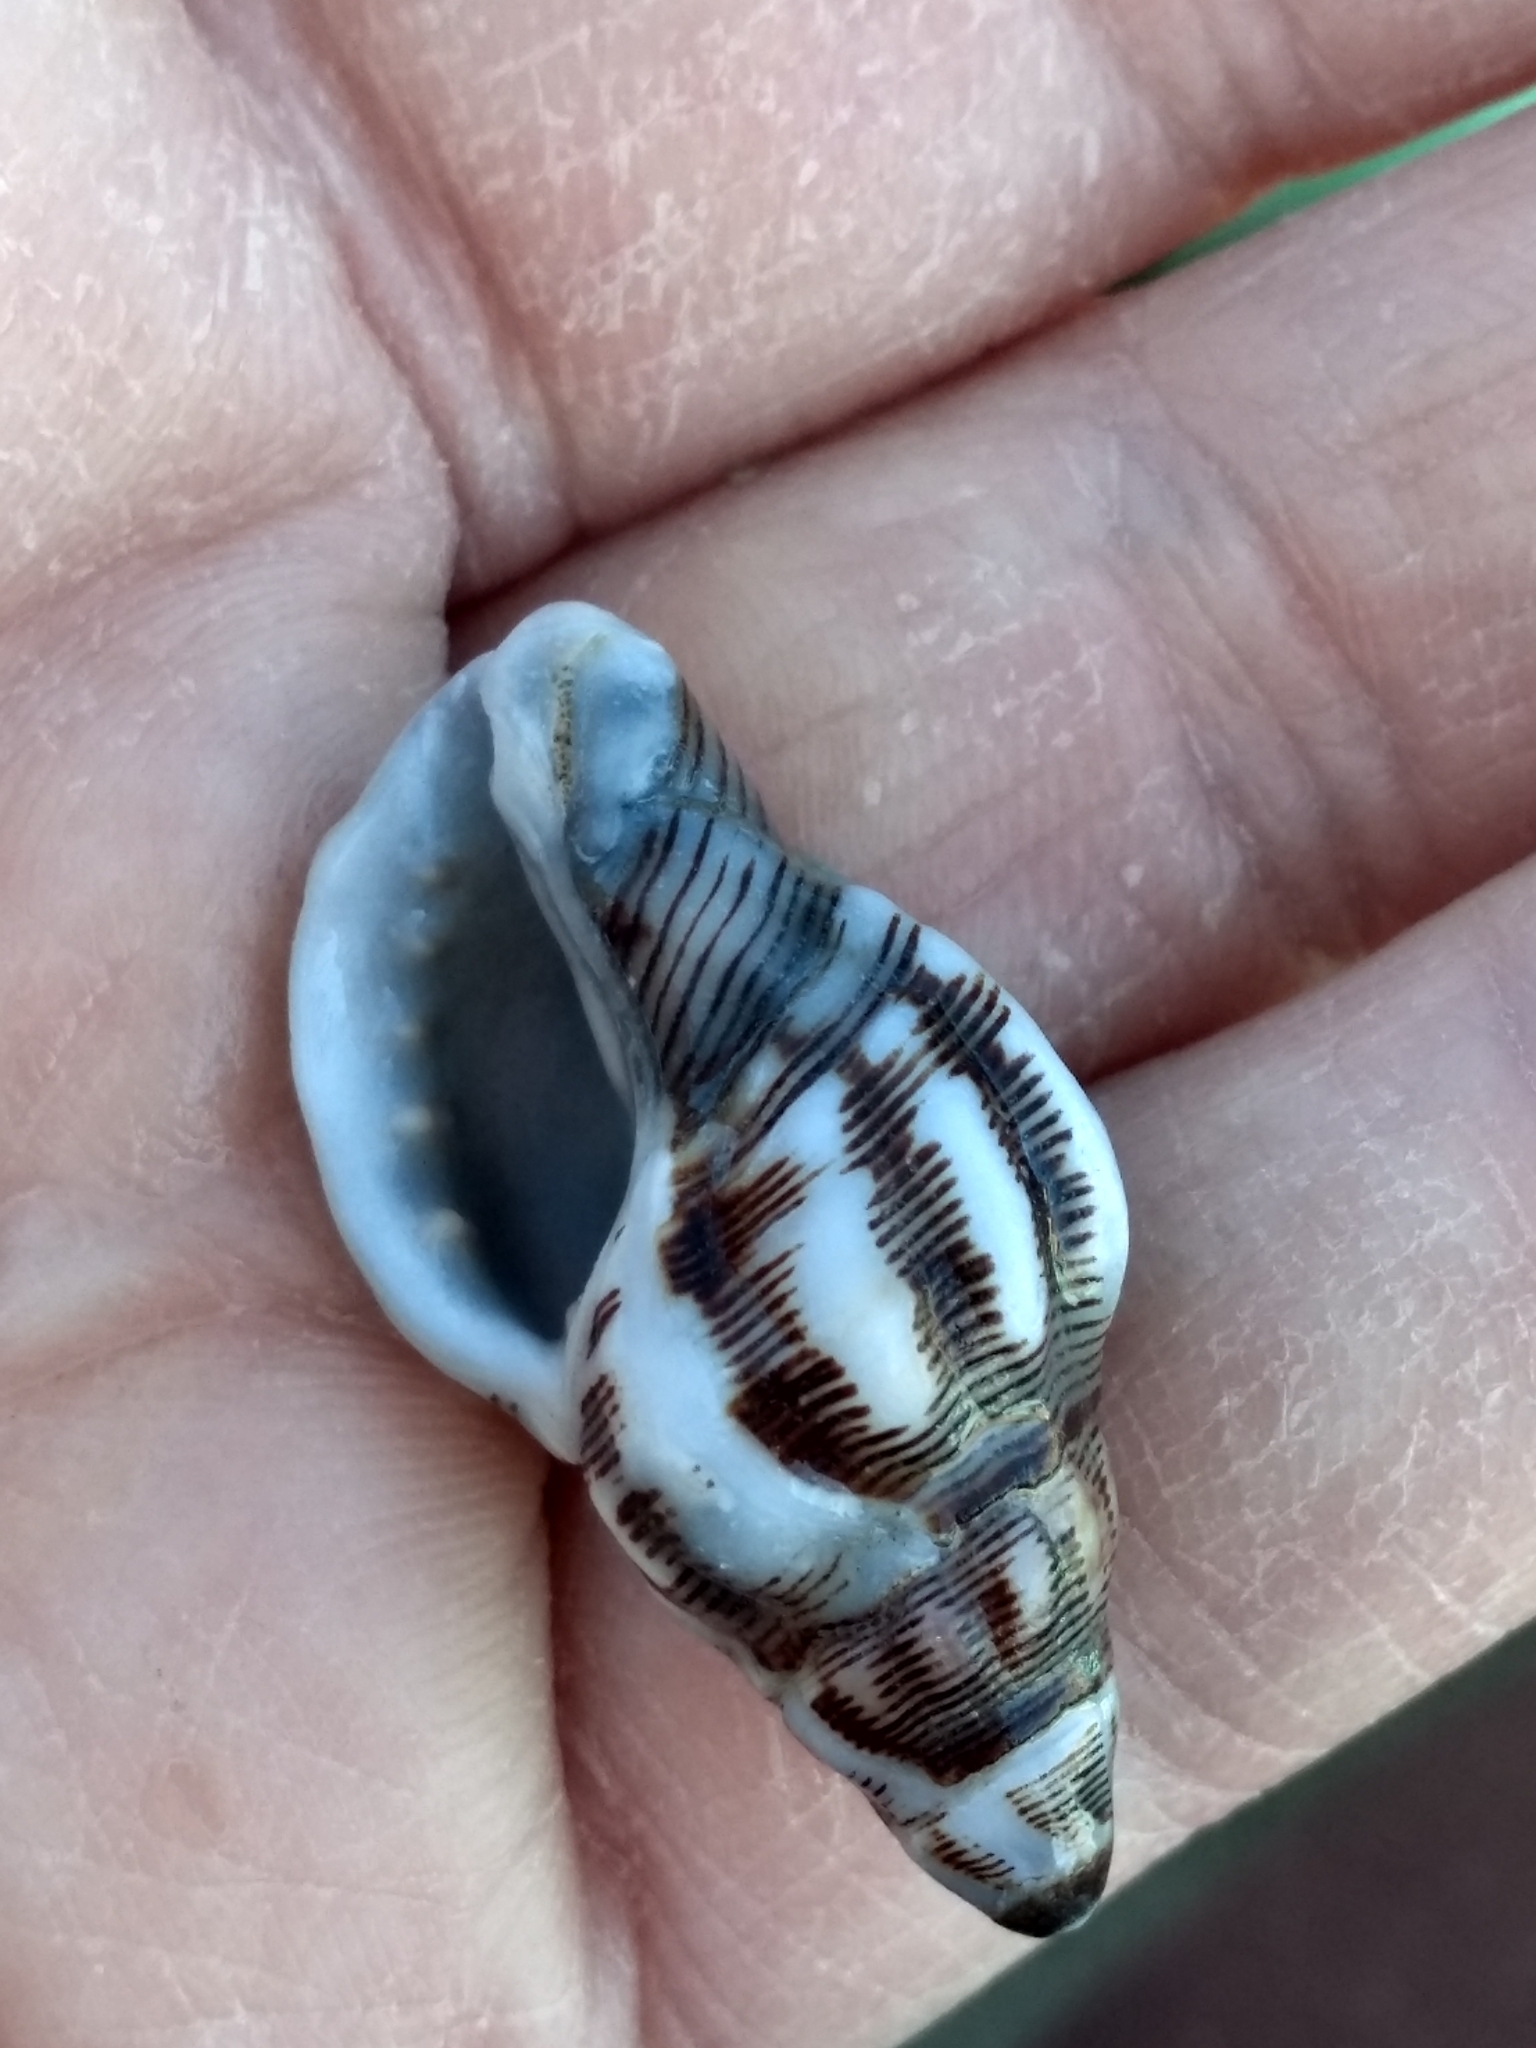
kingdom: Animalia
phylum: Mollusca
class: Gastropoda
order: Neogastropoda
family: Muricidae
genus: Roperia
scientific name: Roperia poulsoni
